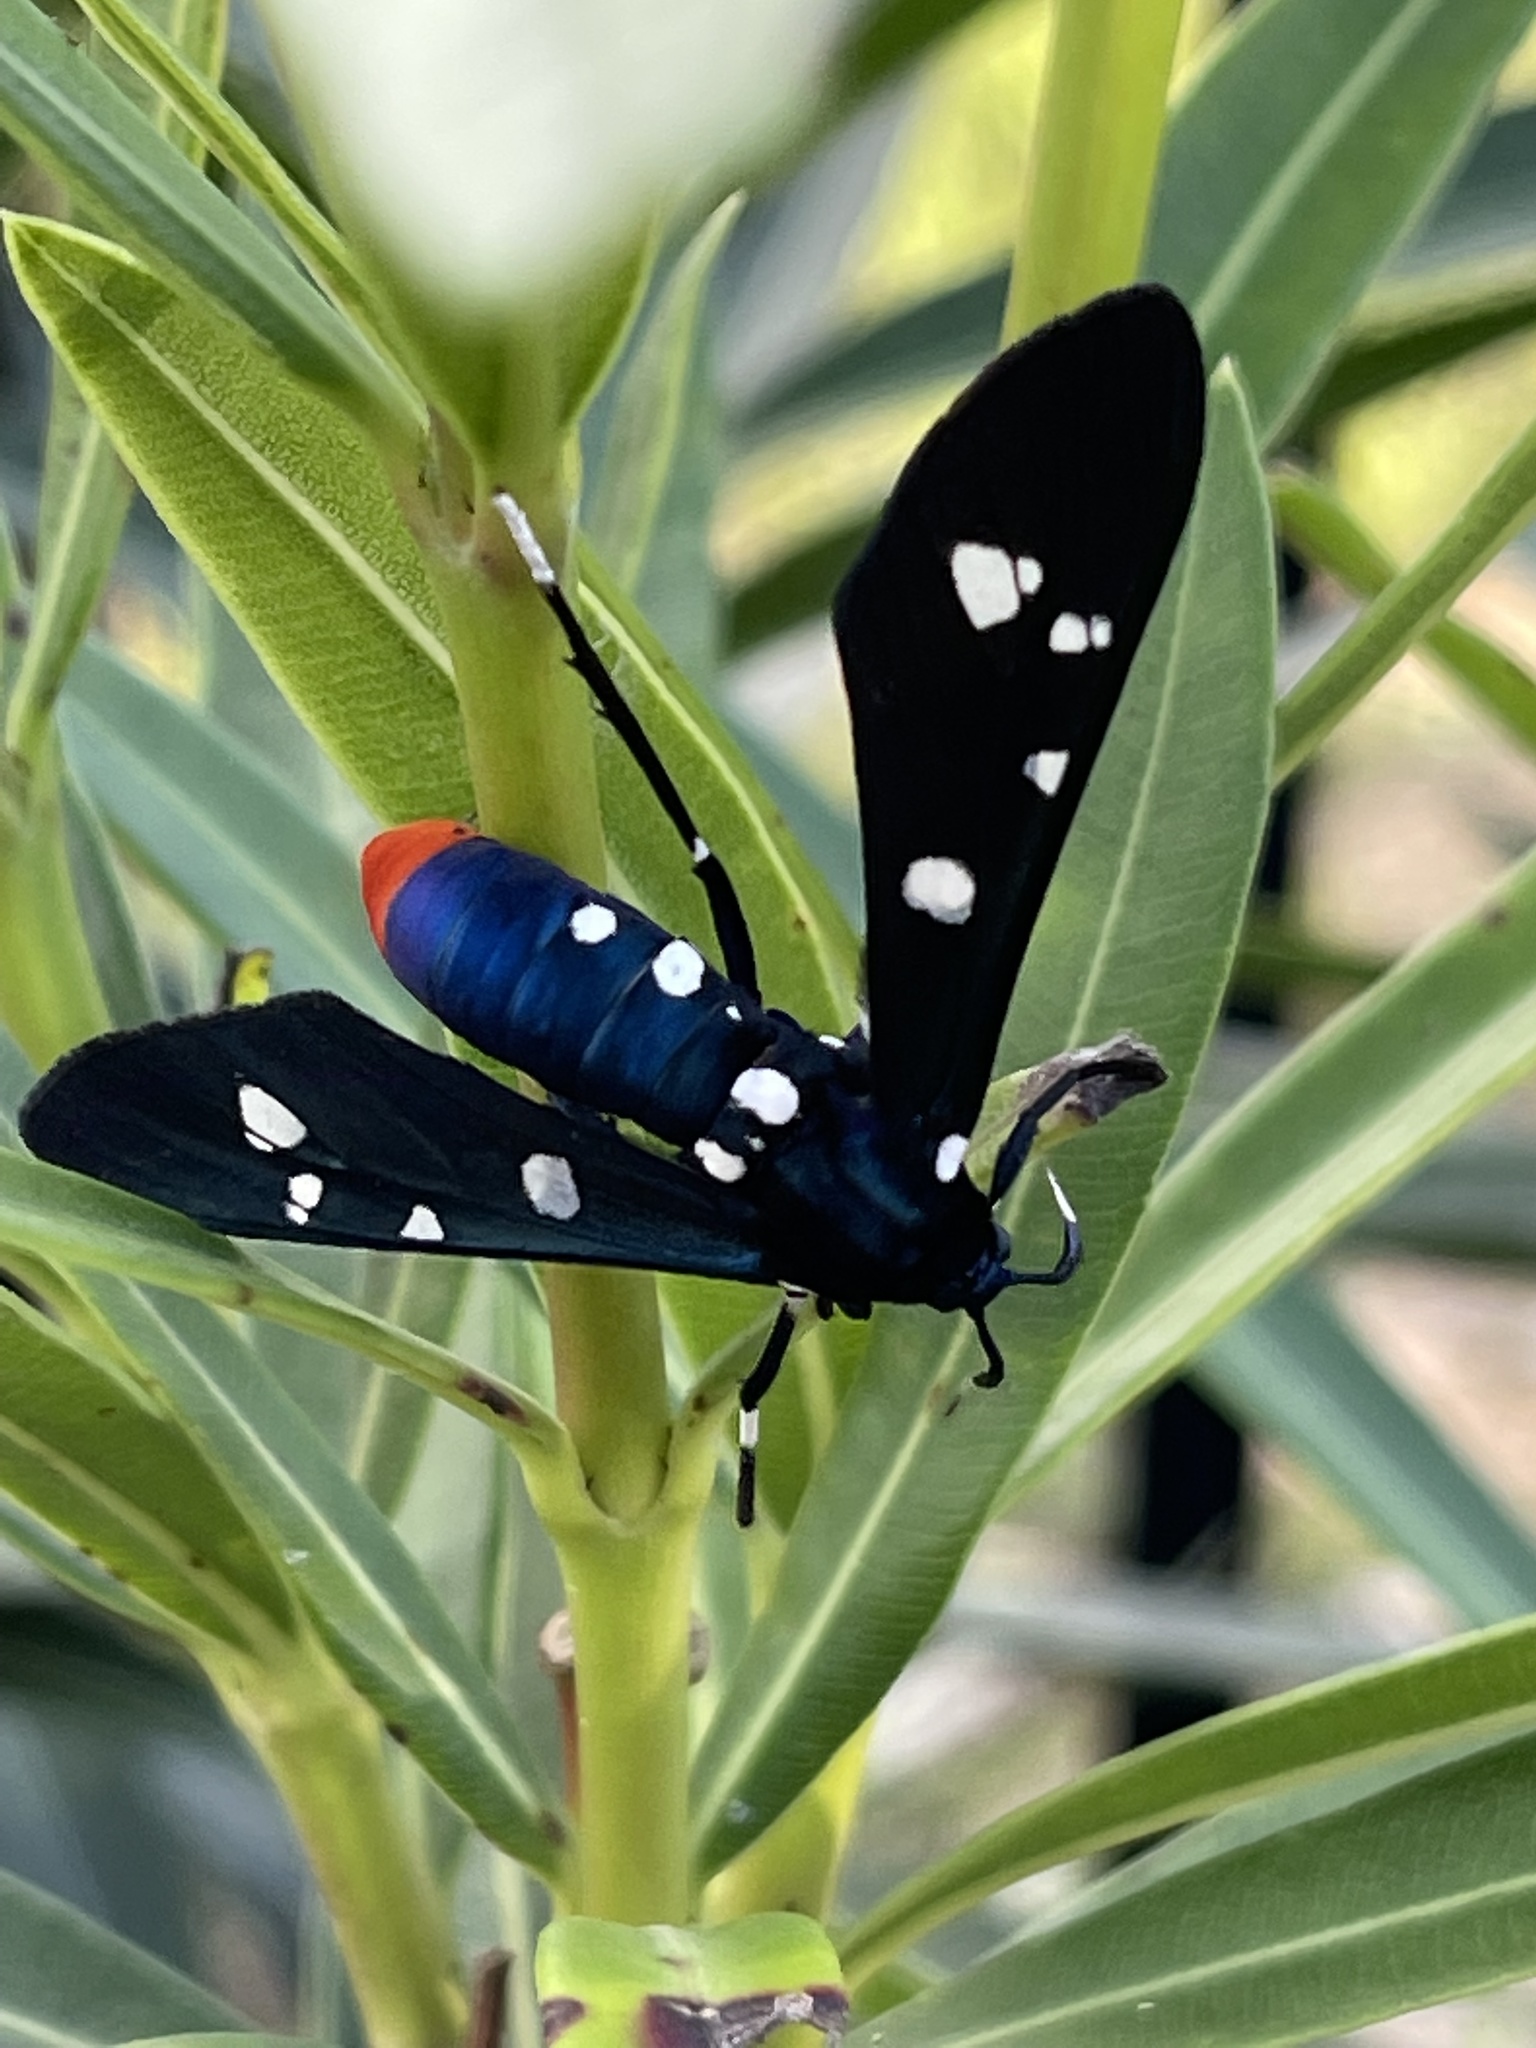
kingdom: Animalia
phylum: Arthropoda
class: Insecta
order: Lepidoptera
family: Erebidae
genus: Syntomeida
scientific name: Syntomeida epilais
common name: Polka-dot wasp moth
